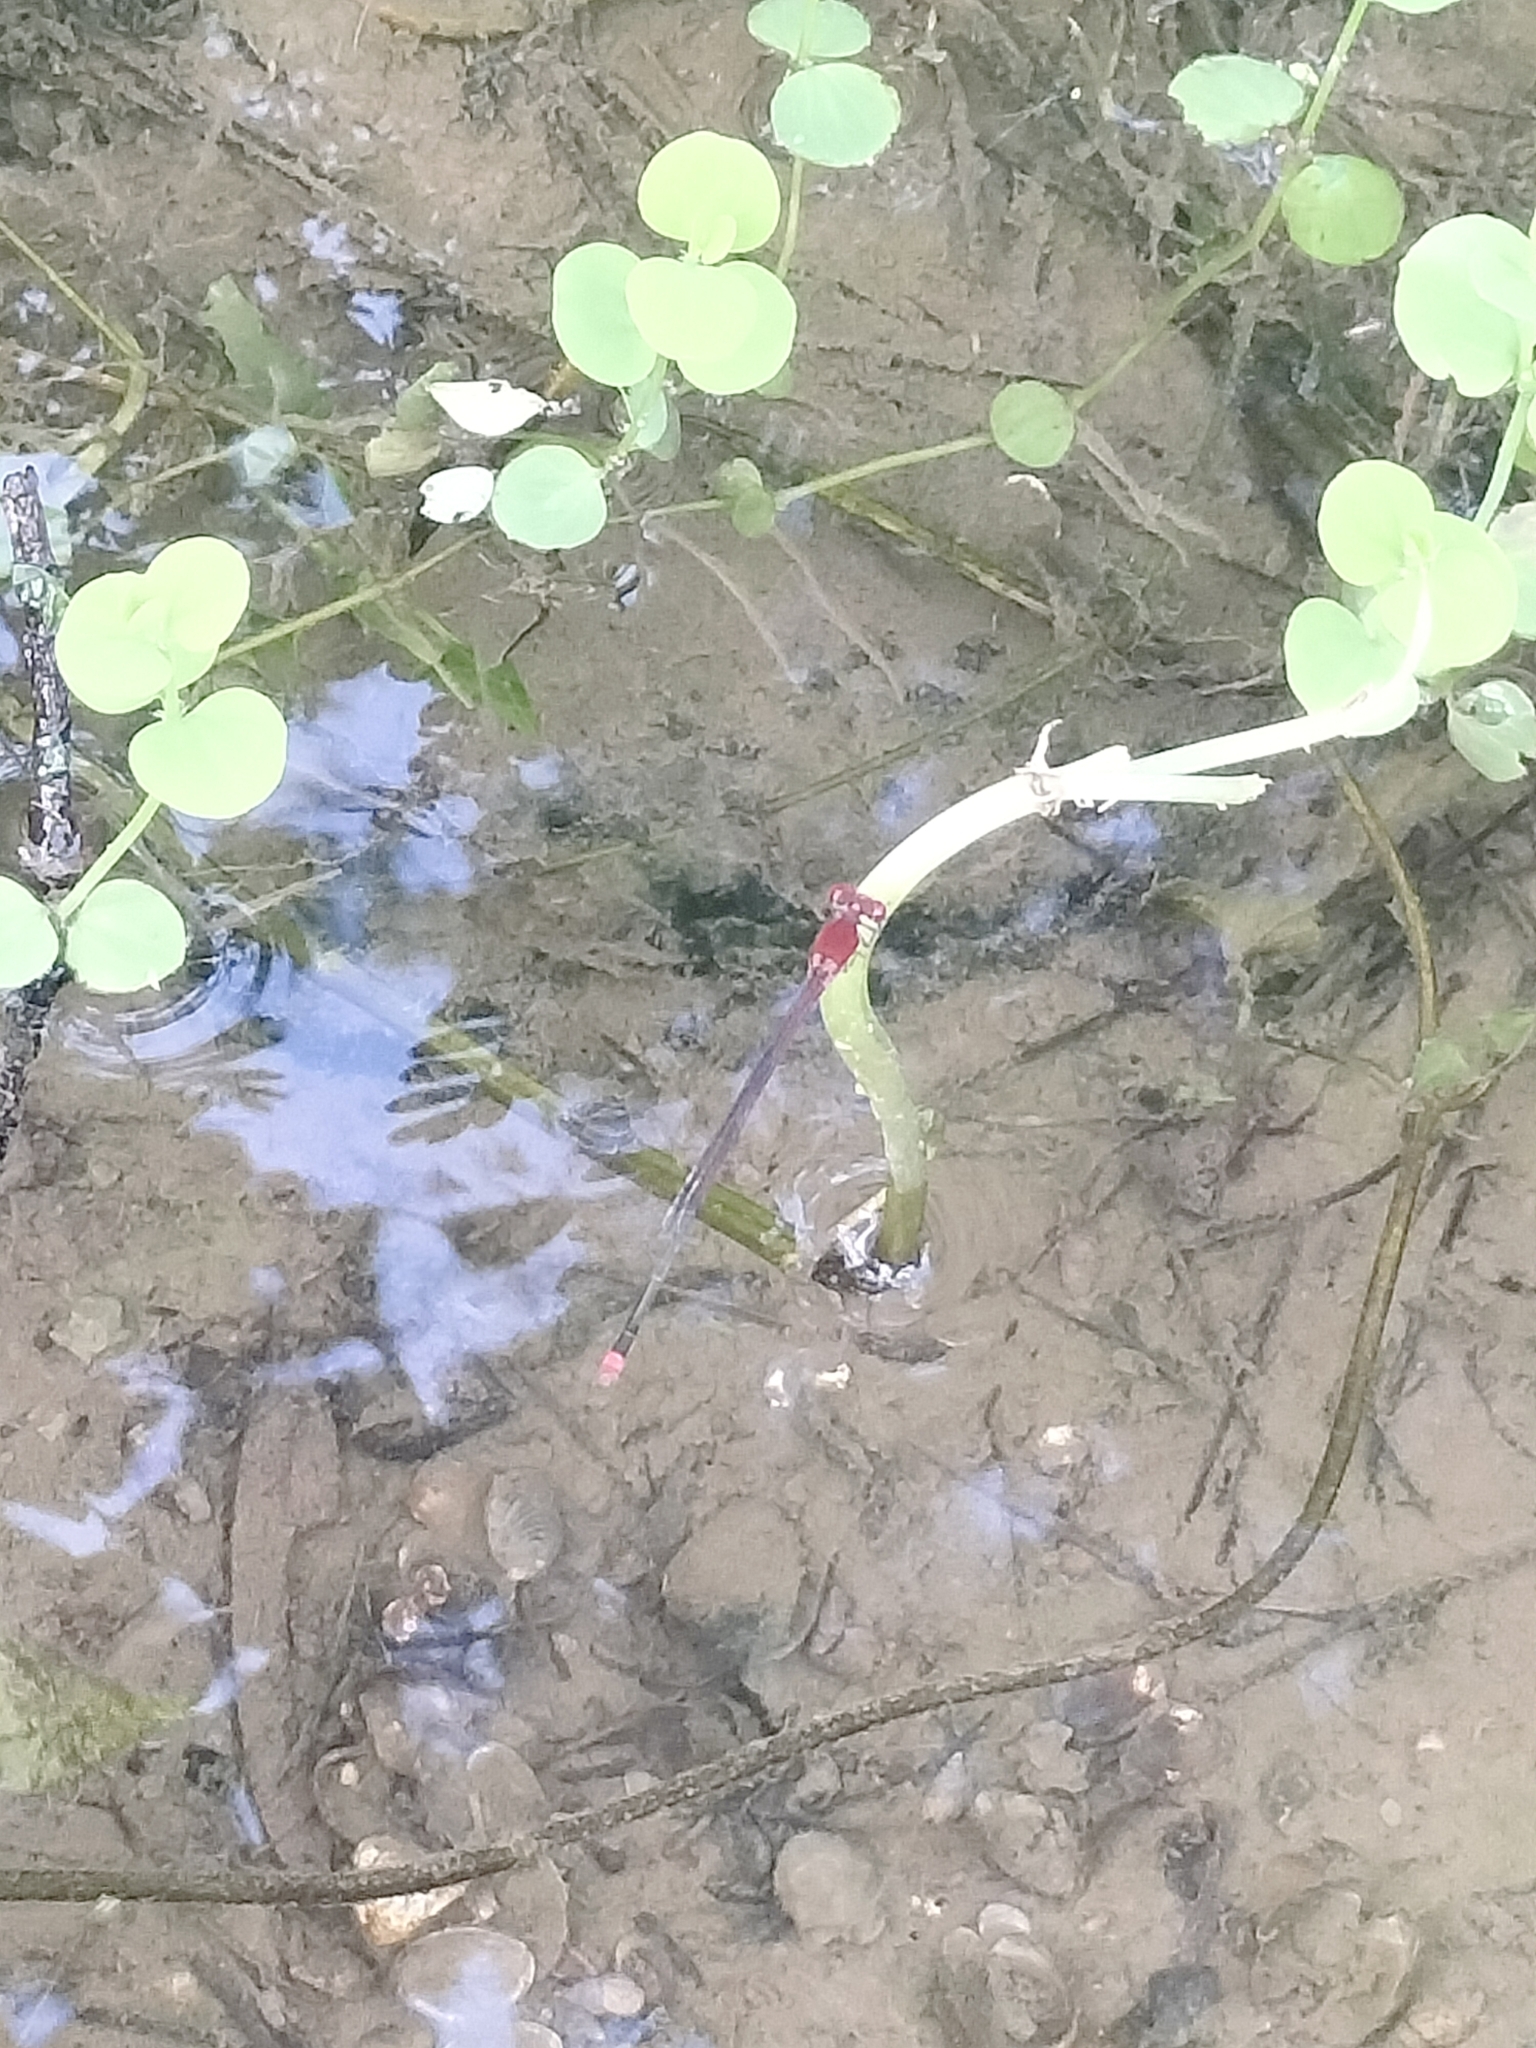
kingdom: Animalia
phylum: Arthropoda
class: Insecta
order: Odonata
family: Coenagrionidae
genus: Pseudagrion
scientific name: Pseudagrion pilidorsum
